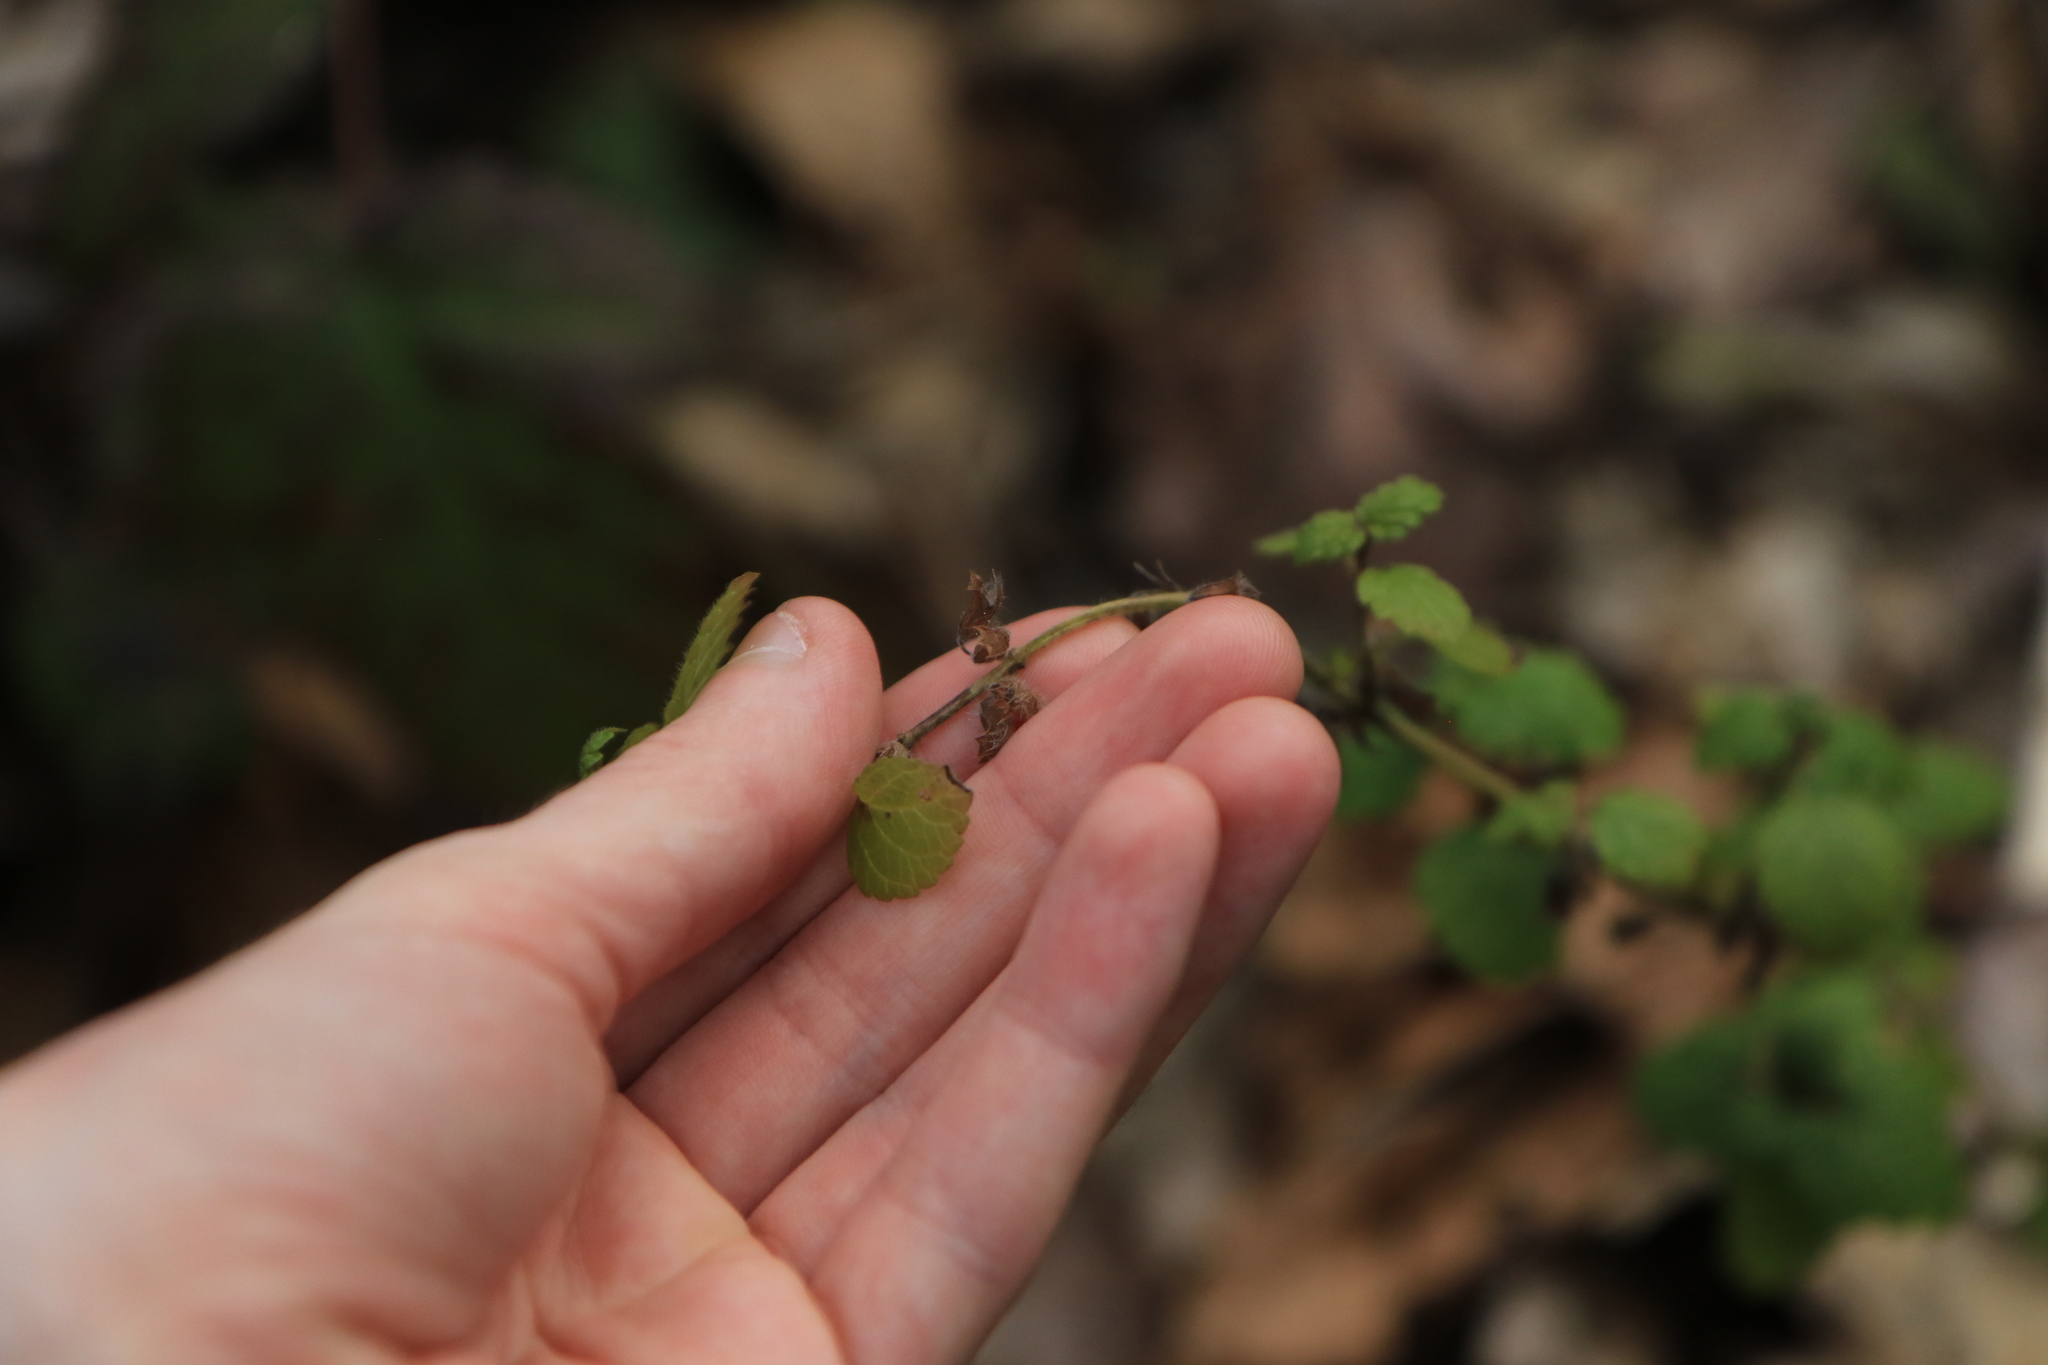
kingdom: Plantae
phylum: Tracheophyta
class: Magnoliopsida
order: Lamiales
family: Lamiaceae
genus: Melissa
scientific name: Melissa officinalis
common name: Balm
